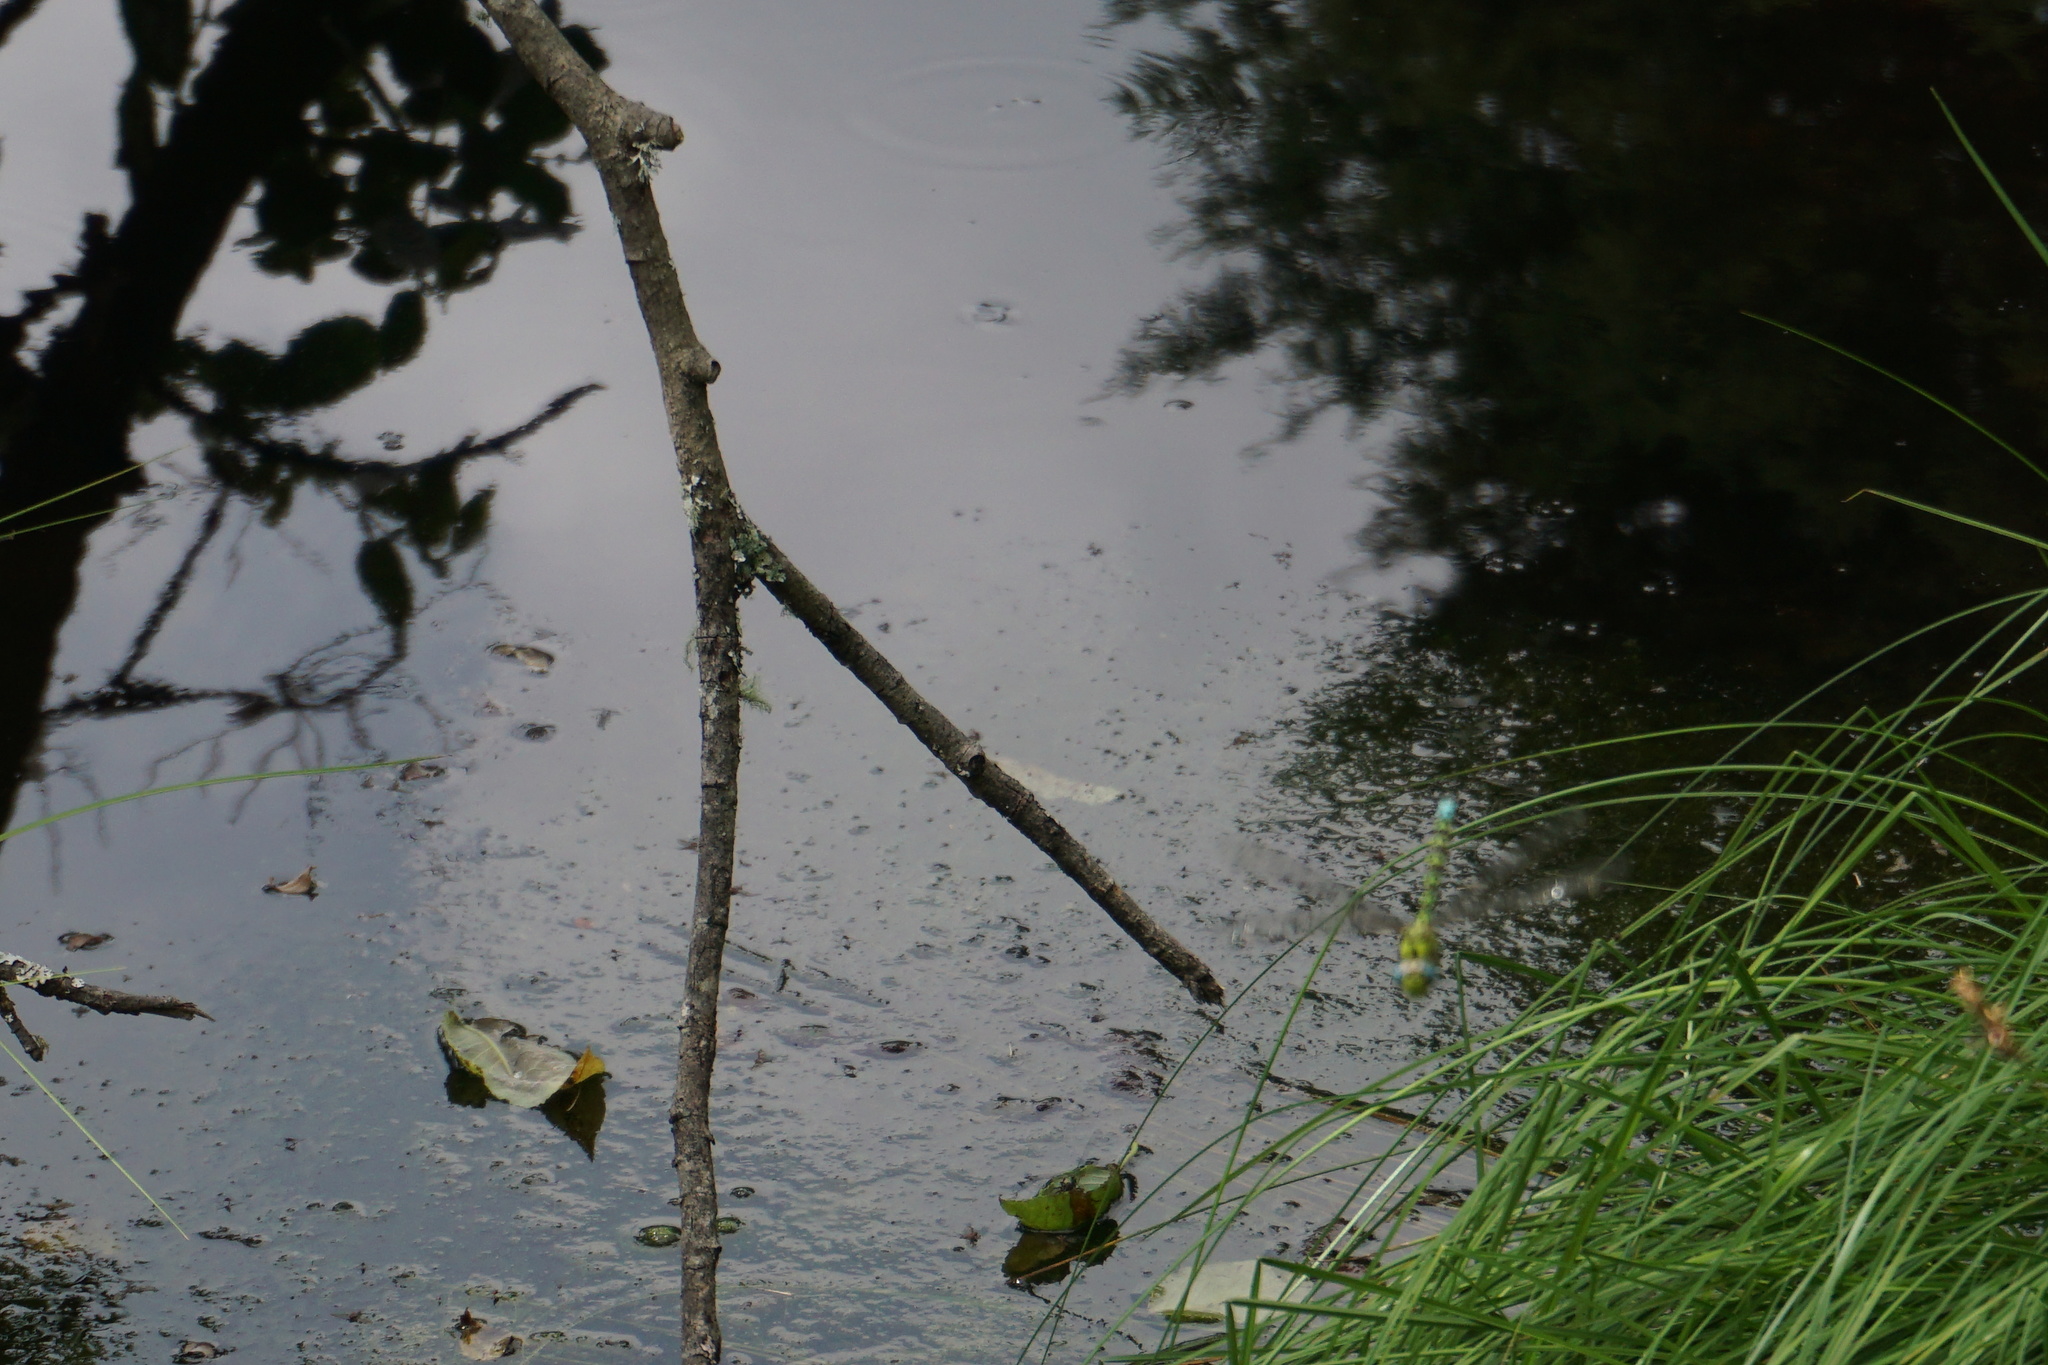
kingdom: Animalia
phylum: Arthropoda
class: Insecta
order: Odonata
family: Aeshnidae
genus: Aeshna
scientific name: Aeshna cyanea
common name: Southern hawker
